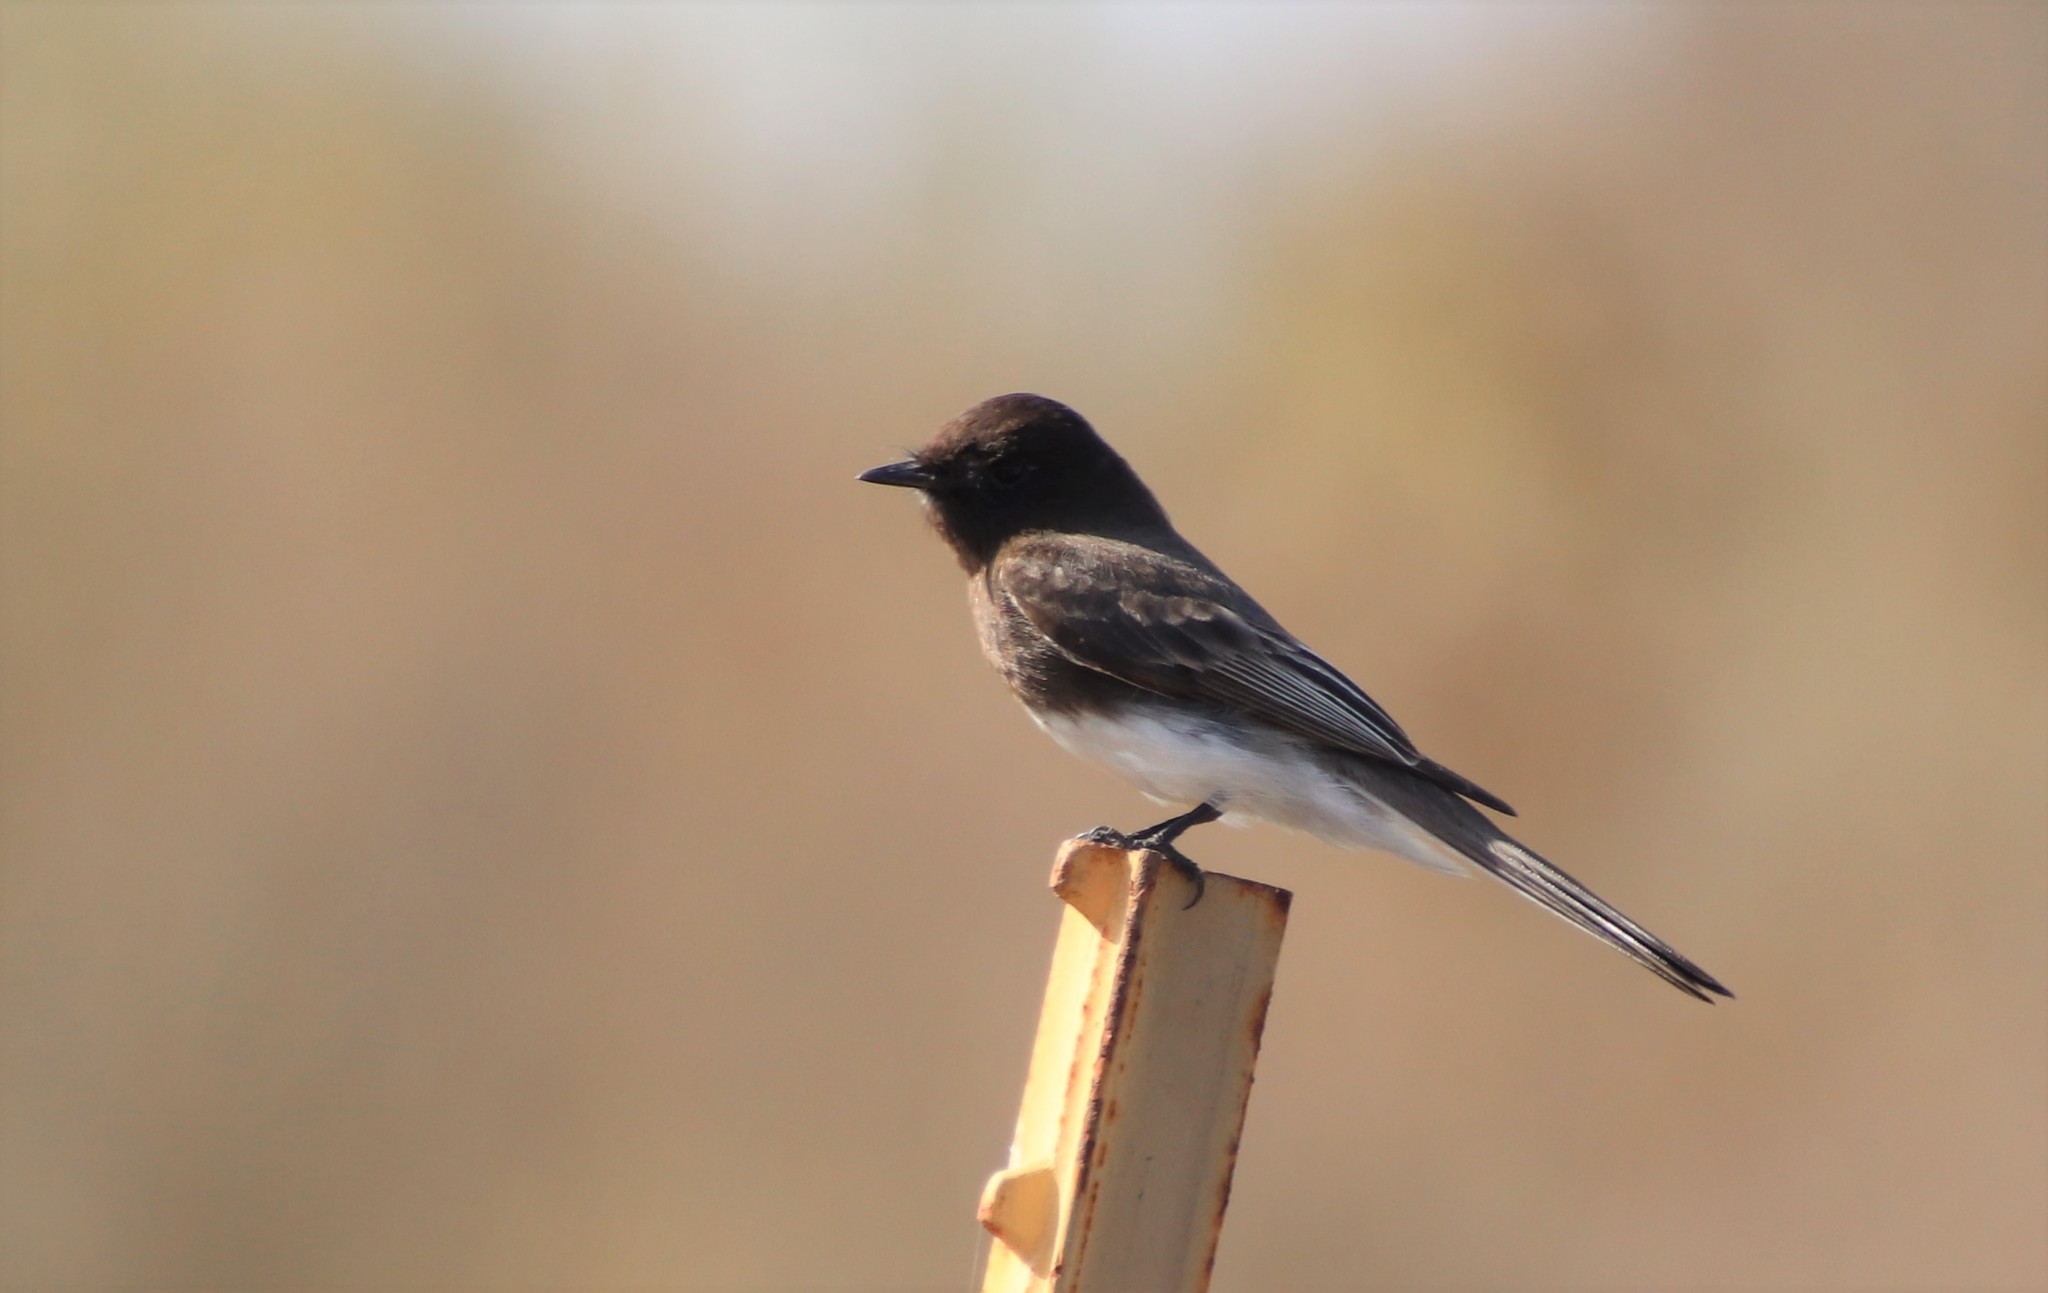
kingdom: Animalia
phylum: Chordata
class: Aves
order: Passeriformes
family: Tyrannidae
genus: Sayornis
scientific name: Sayornis nigricans
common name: Black phoebe
